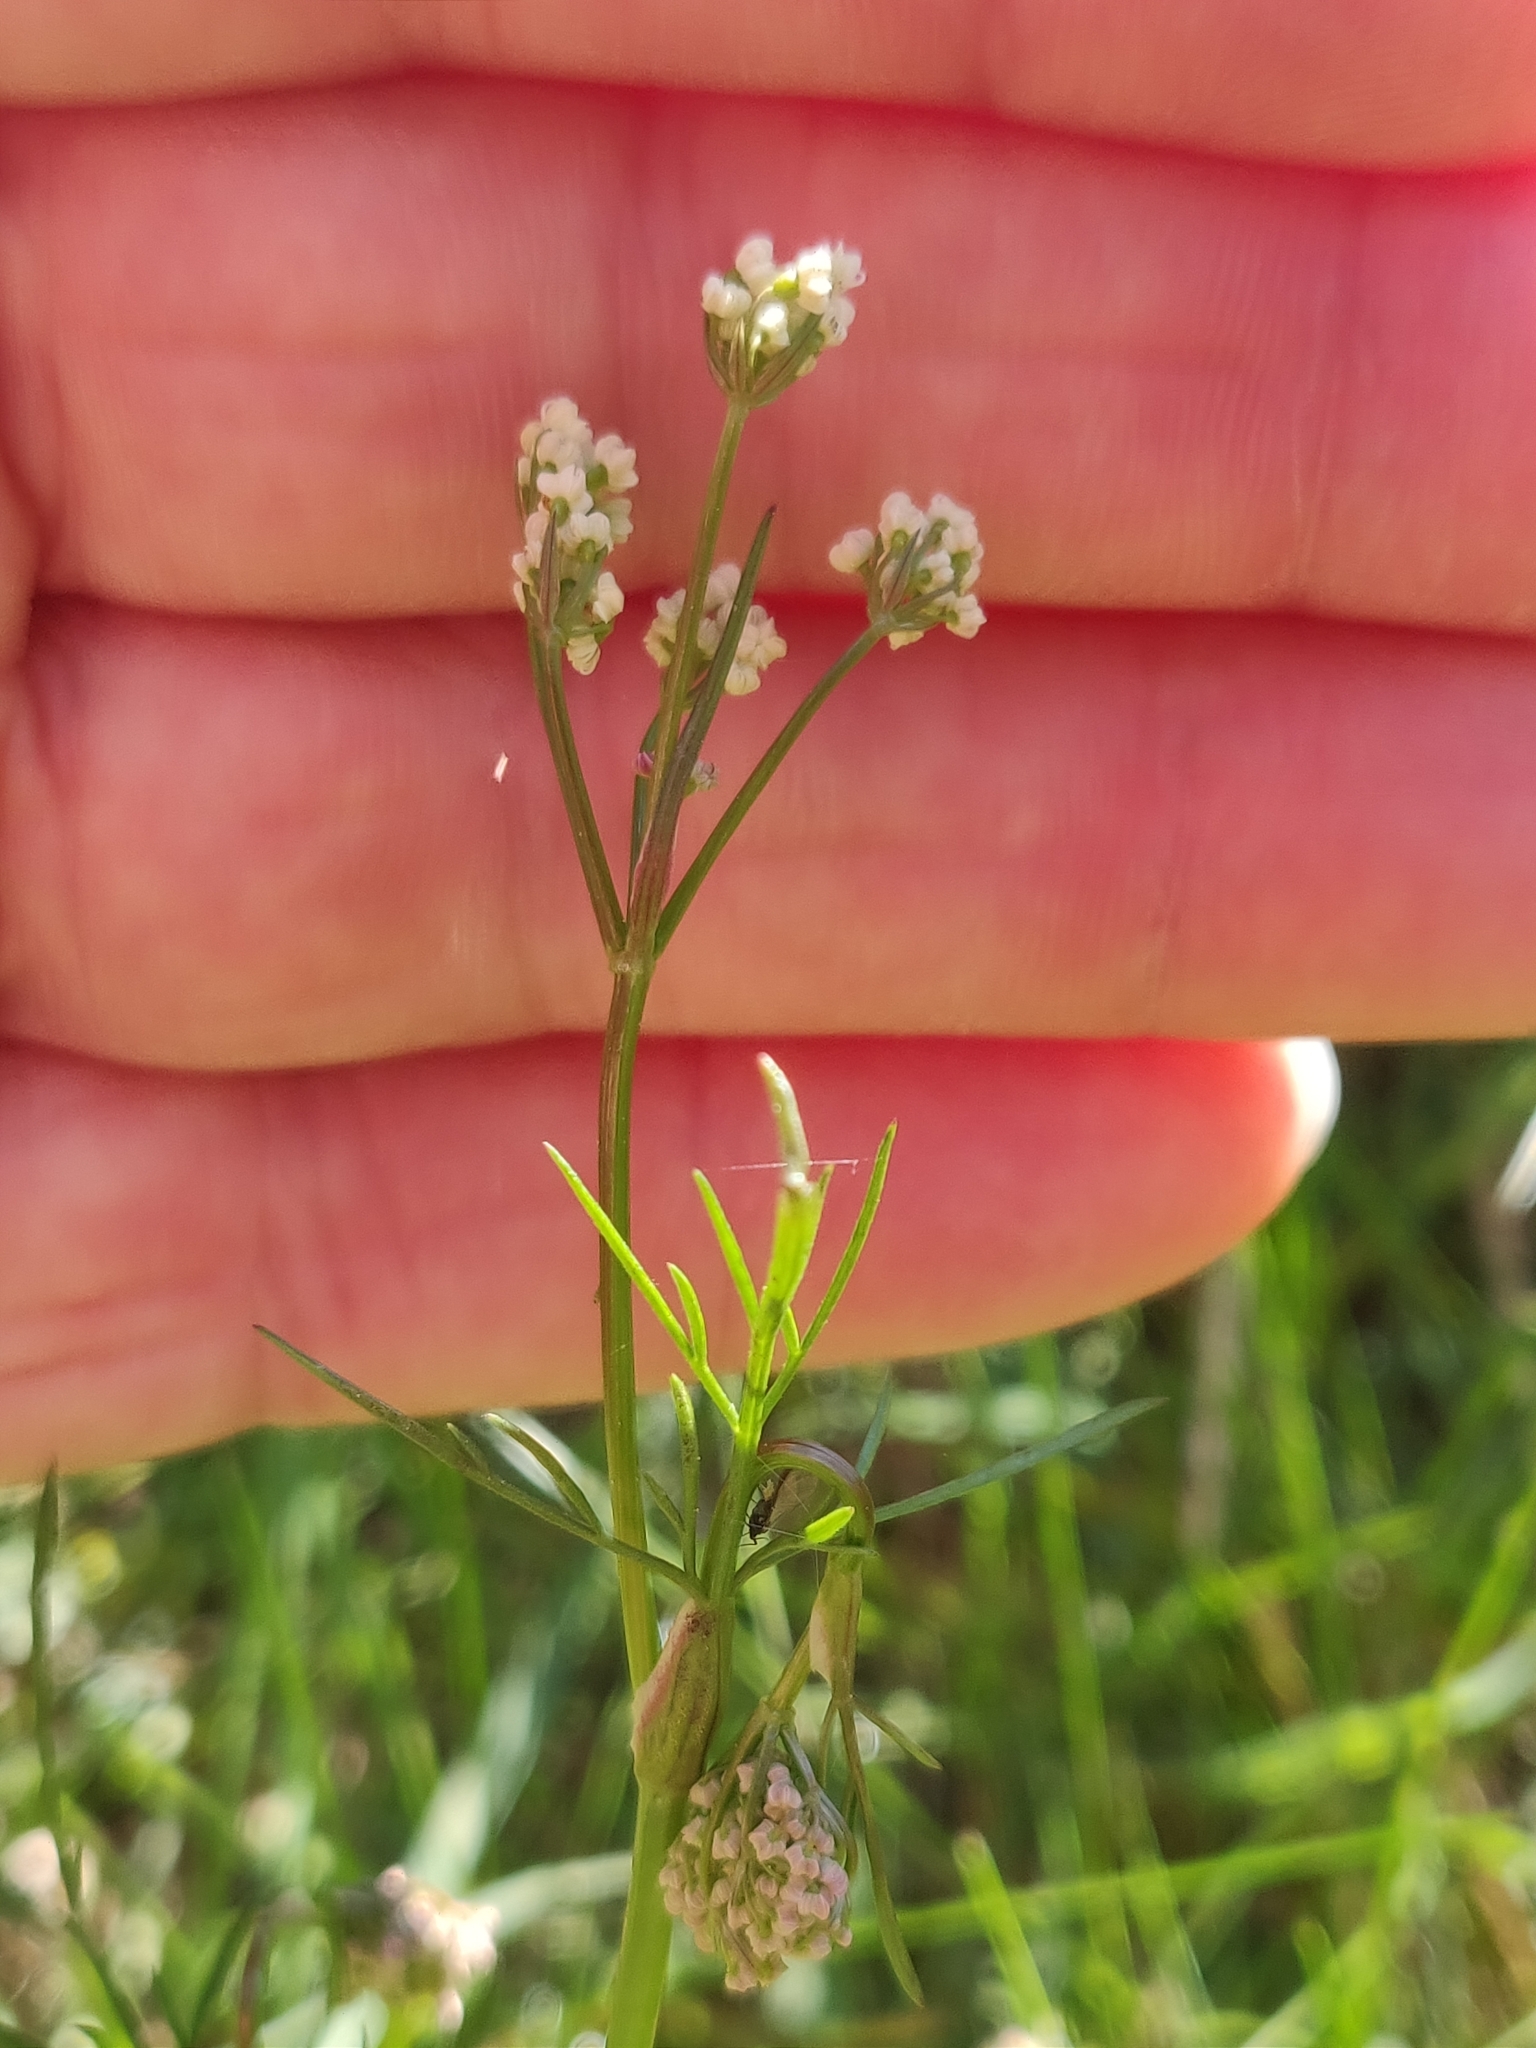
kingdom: Plantae
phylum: Tracheophyta
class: Magnoliopsida
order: Apiales
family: Apiaceae
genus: Conopodium
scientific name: Conopodium majus
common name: Pignut
